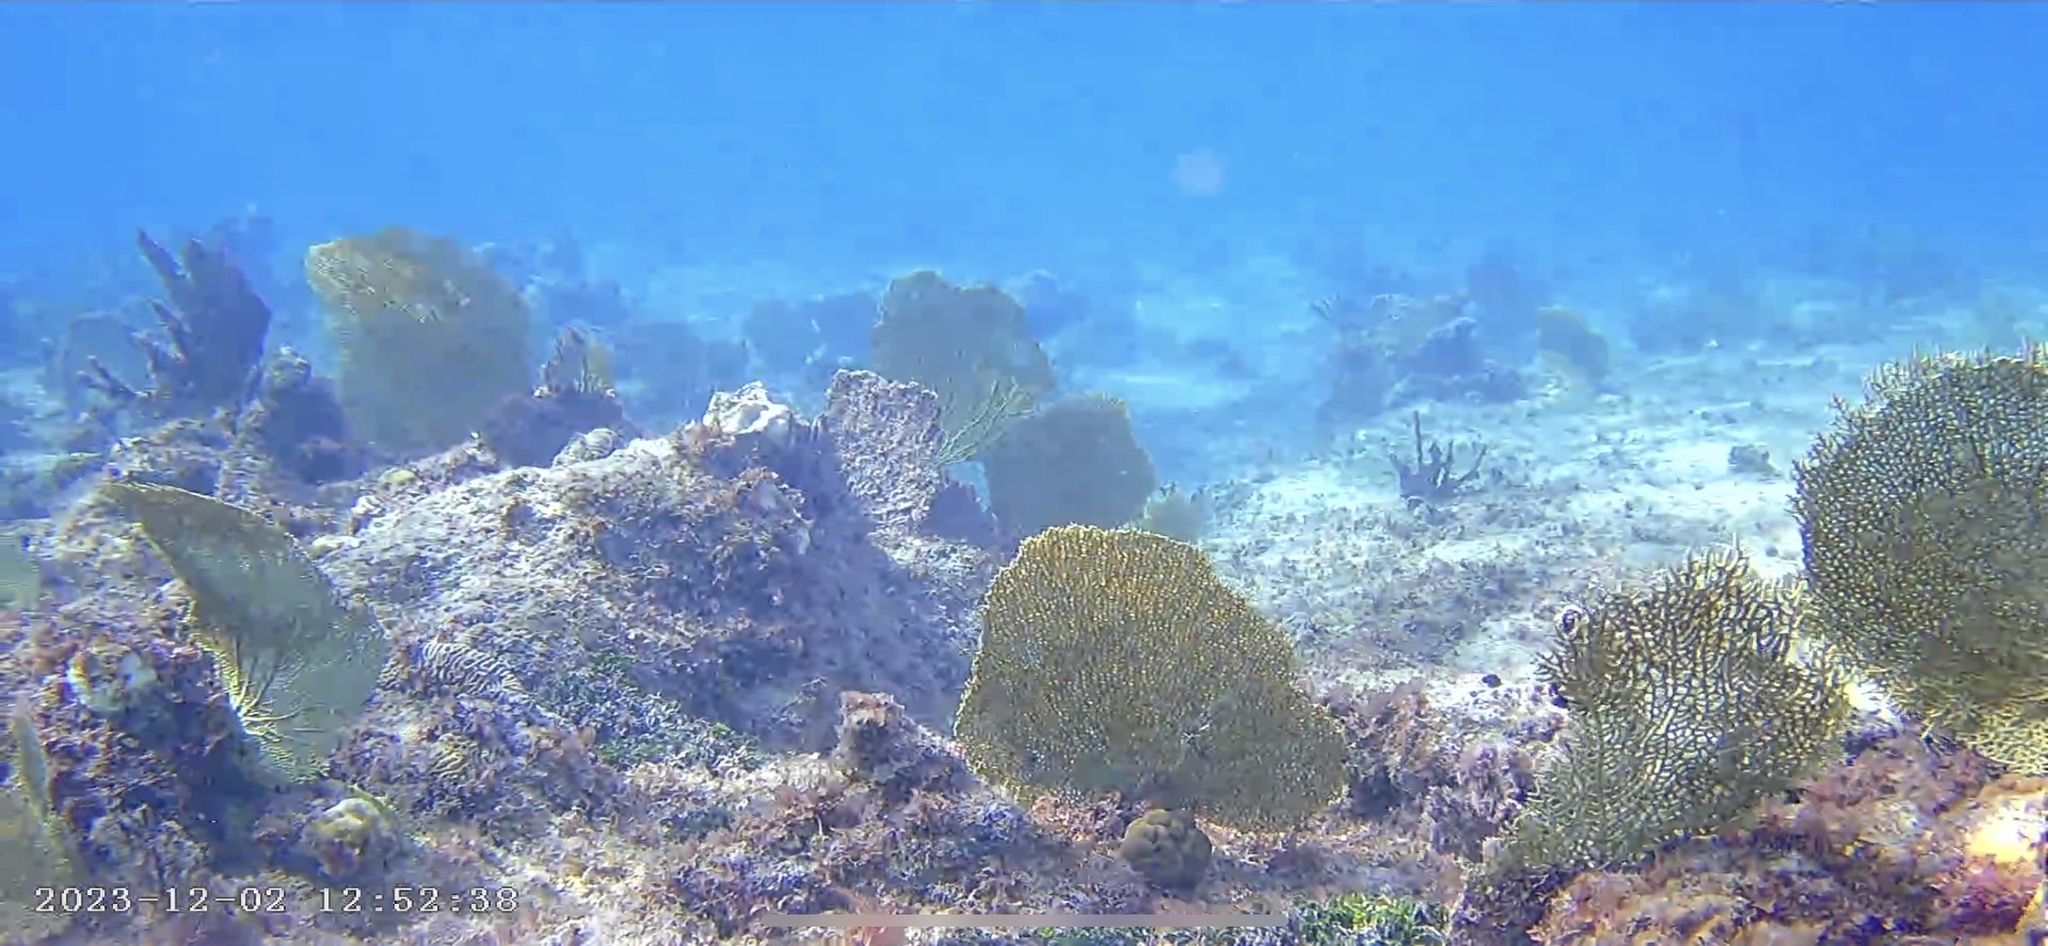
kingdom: Animalia
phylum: Cnidaria
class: Anthozoa
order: Malacalcyonacea
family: Gorgoniidae
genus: Gorgonia
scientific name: Gorgonia ventalina
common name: Common sea fan
